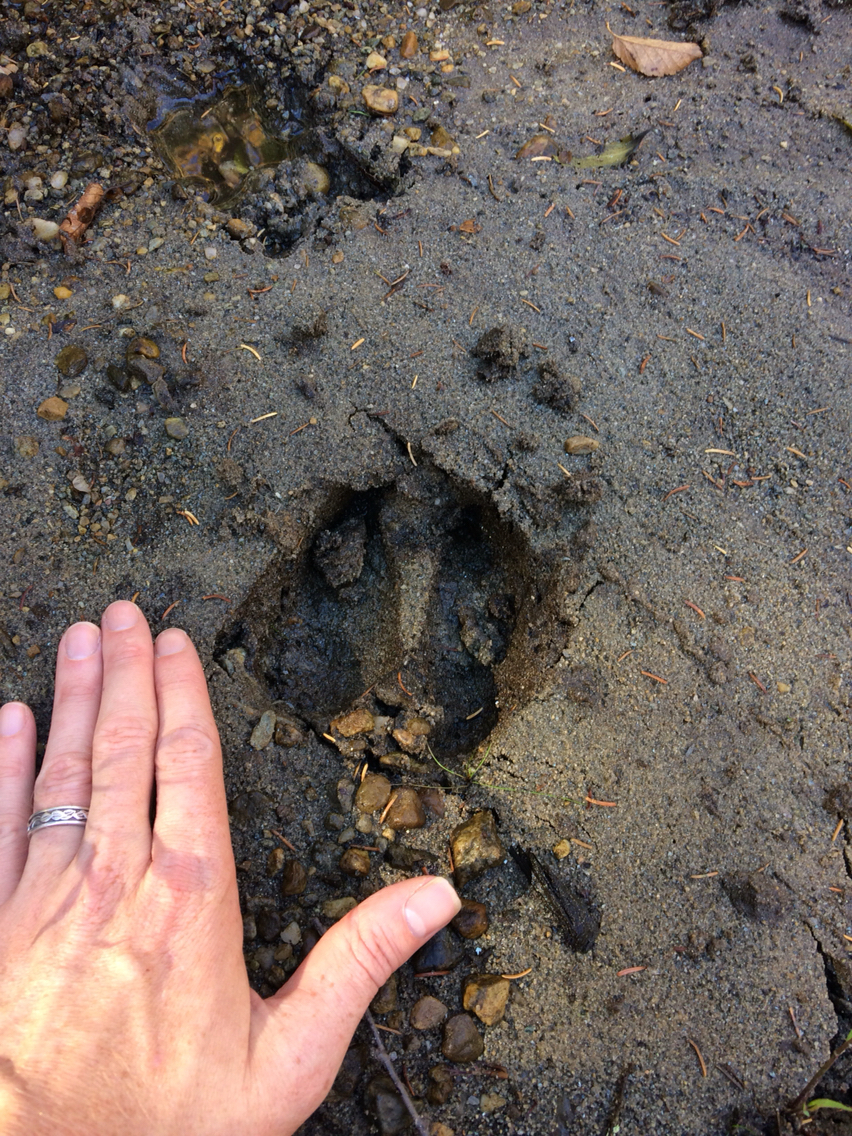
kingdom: Animalia
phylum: Chordata
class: Mammalia
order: Artiodactyla
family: Cervidae
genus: Alces
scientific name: Alces alces
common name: Moose
